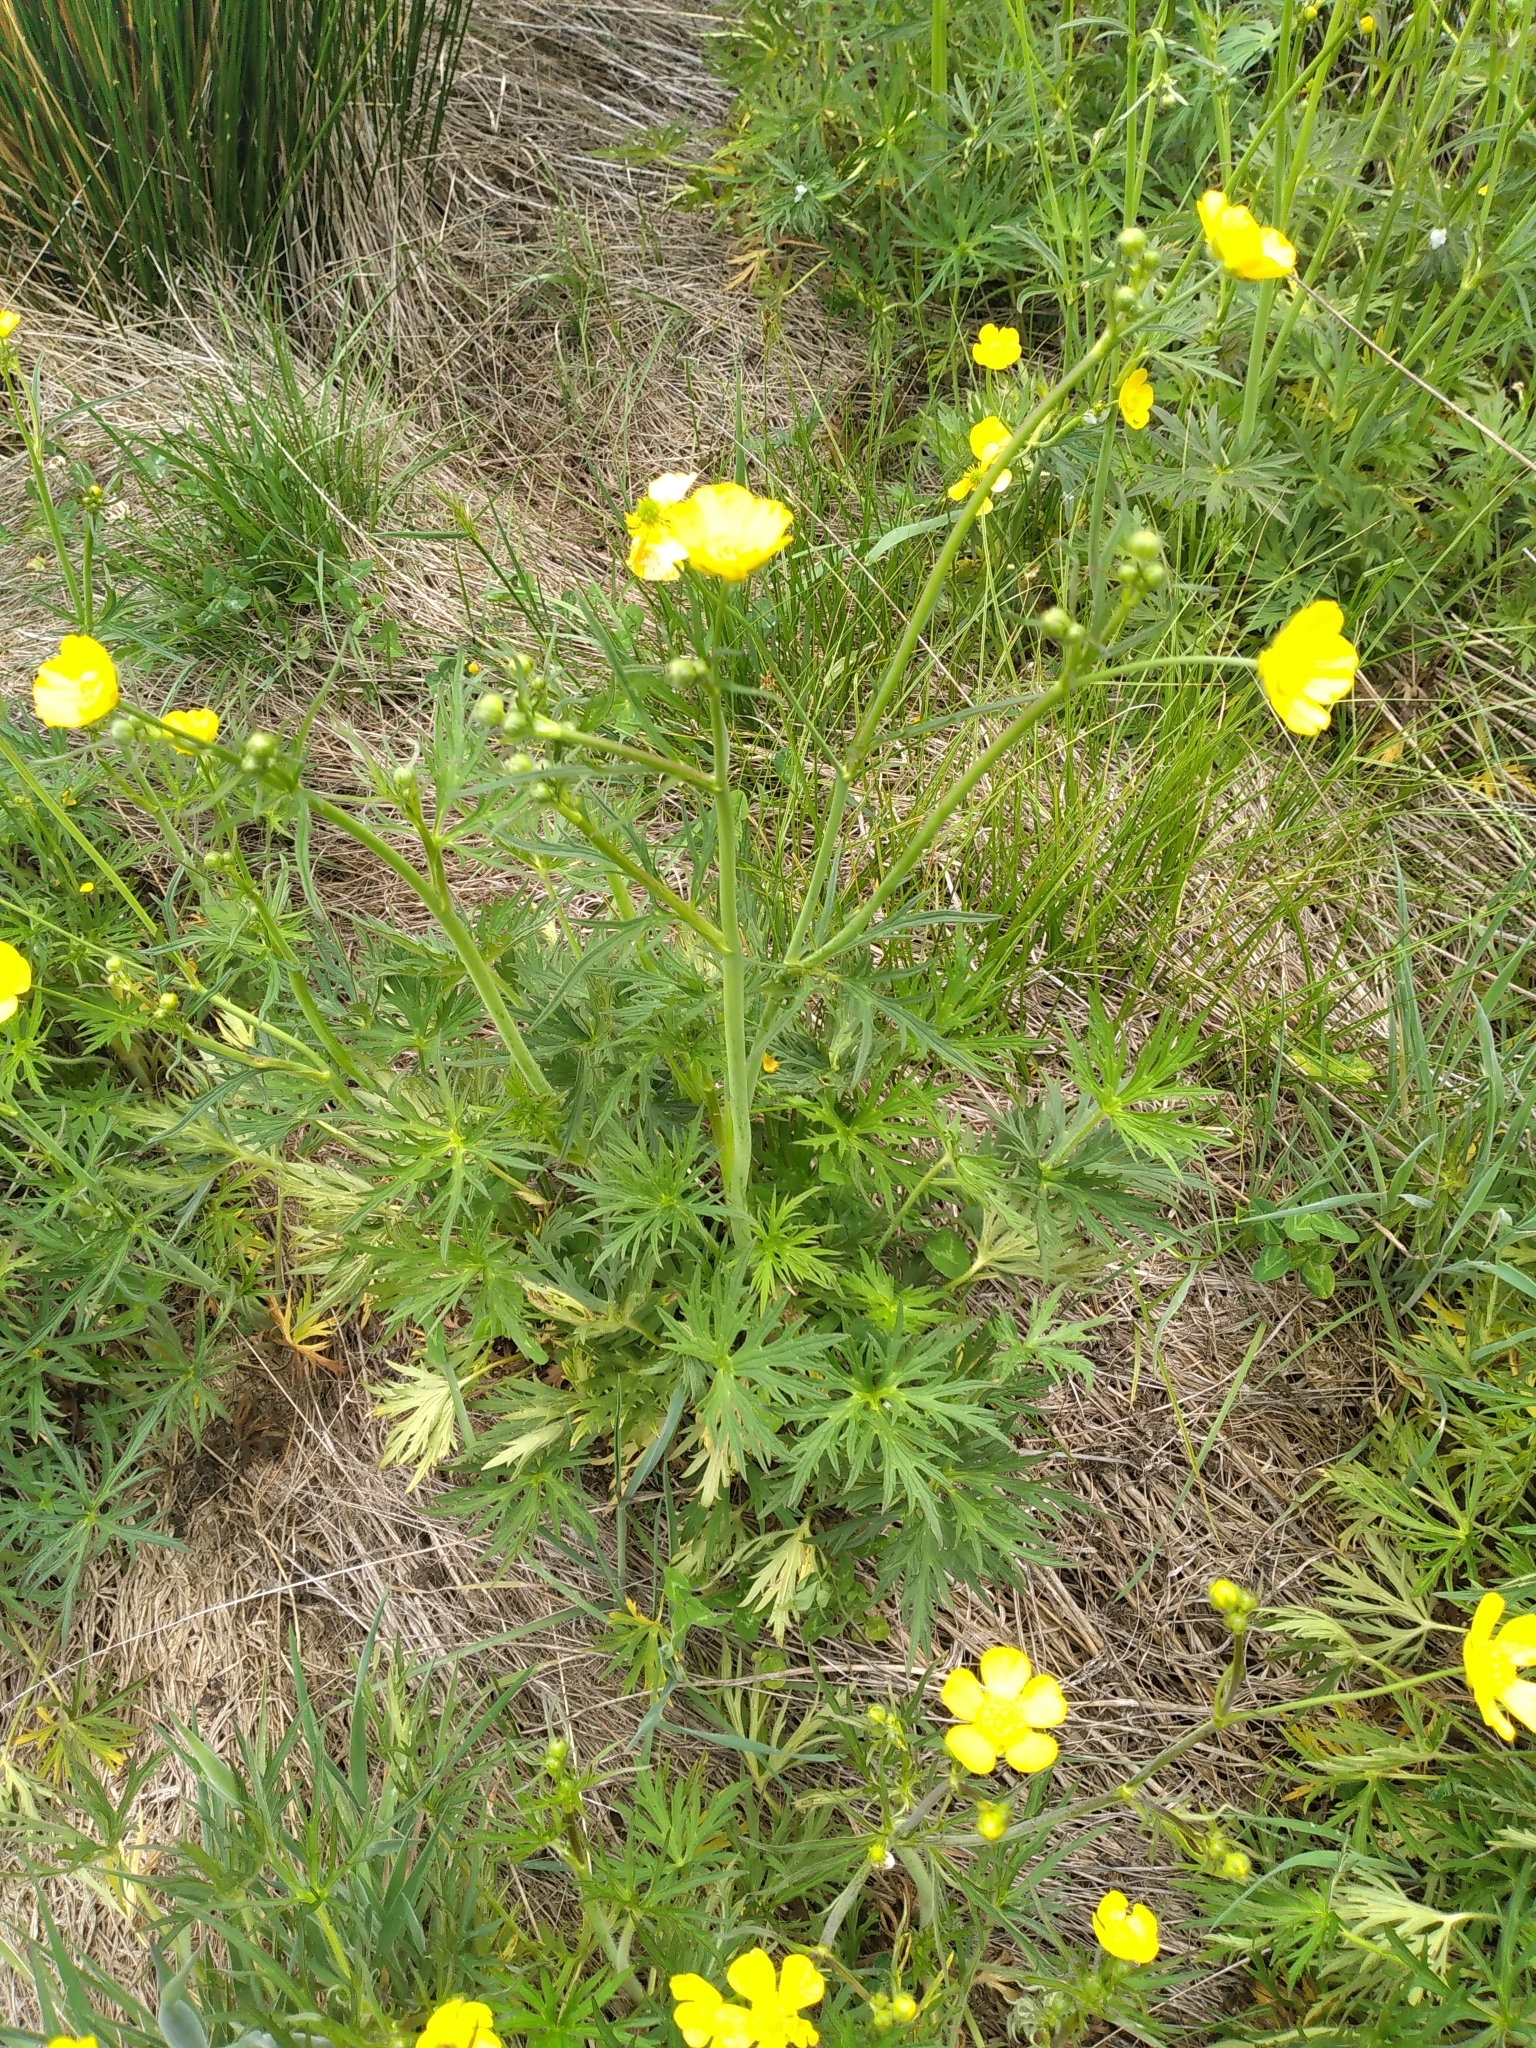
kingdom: Plantae
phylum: Tracheophyta
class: Magnoliopsida
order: Ranunculales
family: Ranunculaceae
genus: Ranunculus
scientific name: Ranunculus acris
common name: Meadow buttercup
